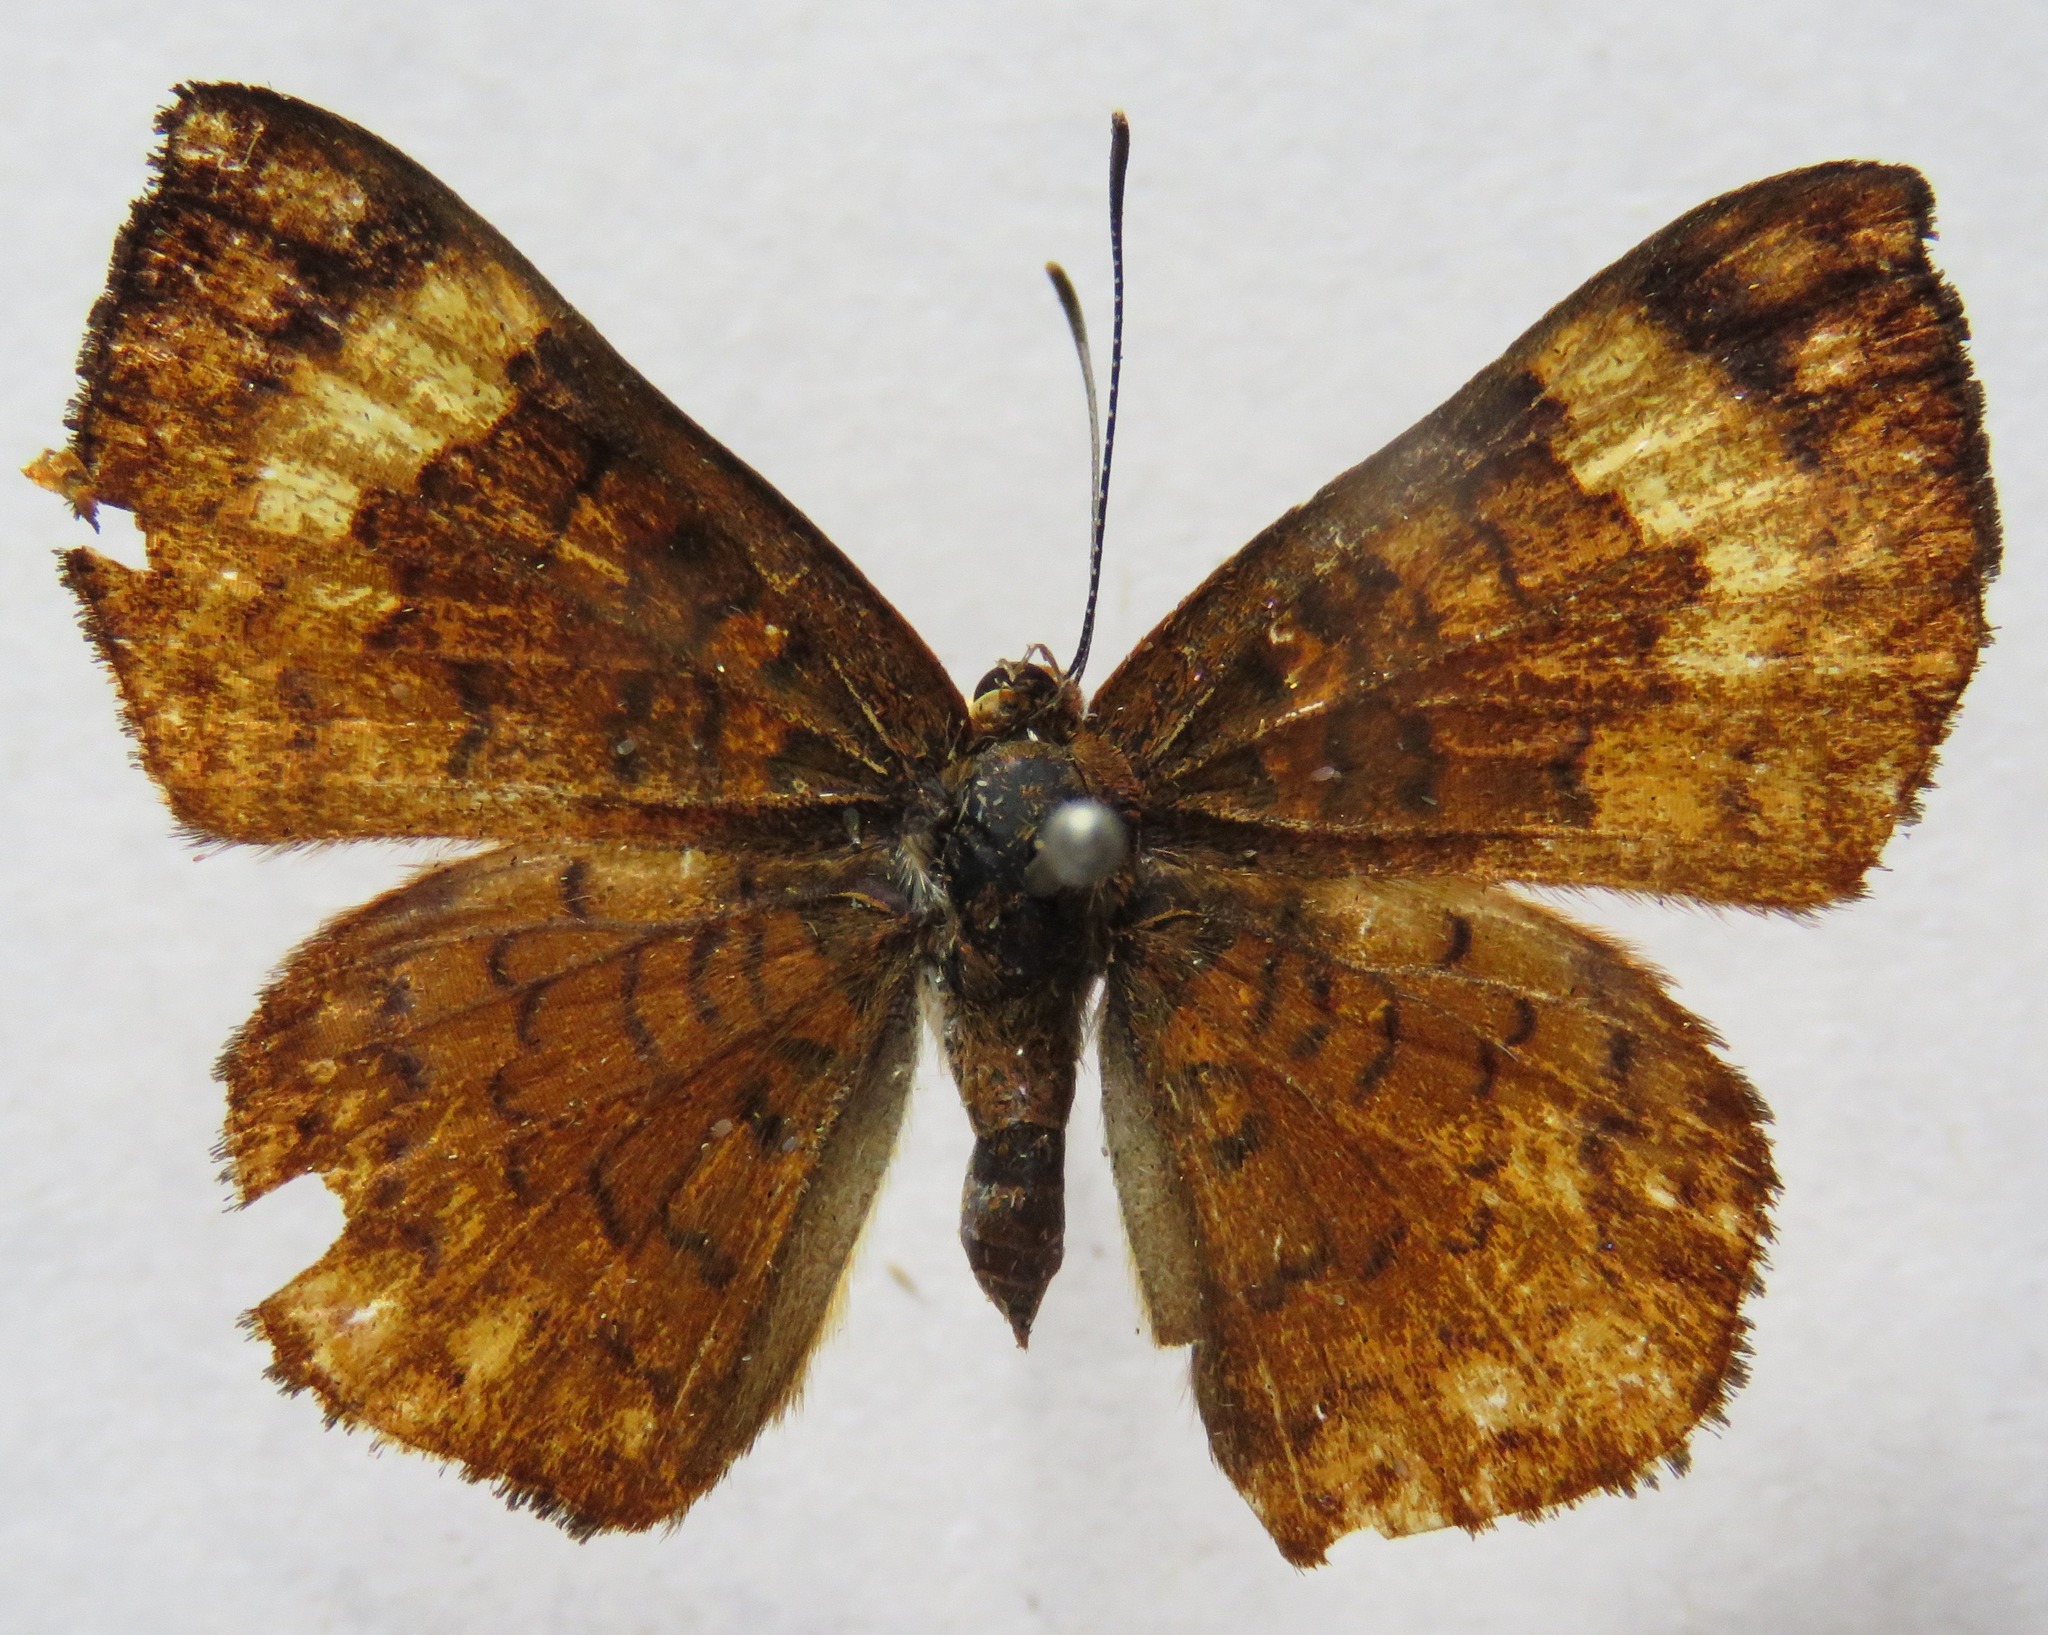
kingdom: Animalia
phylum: Arthropoda
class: Insecta
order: Lepidoptera
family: Lycaenidae
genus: Emesis
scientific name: Emesis tenedia
